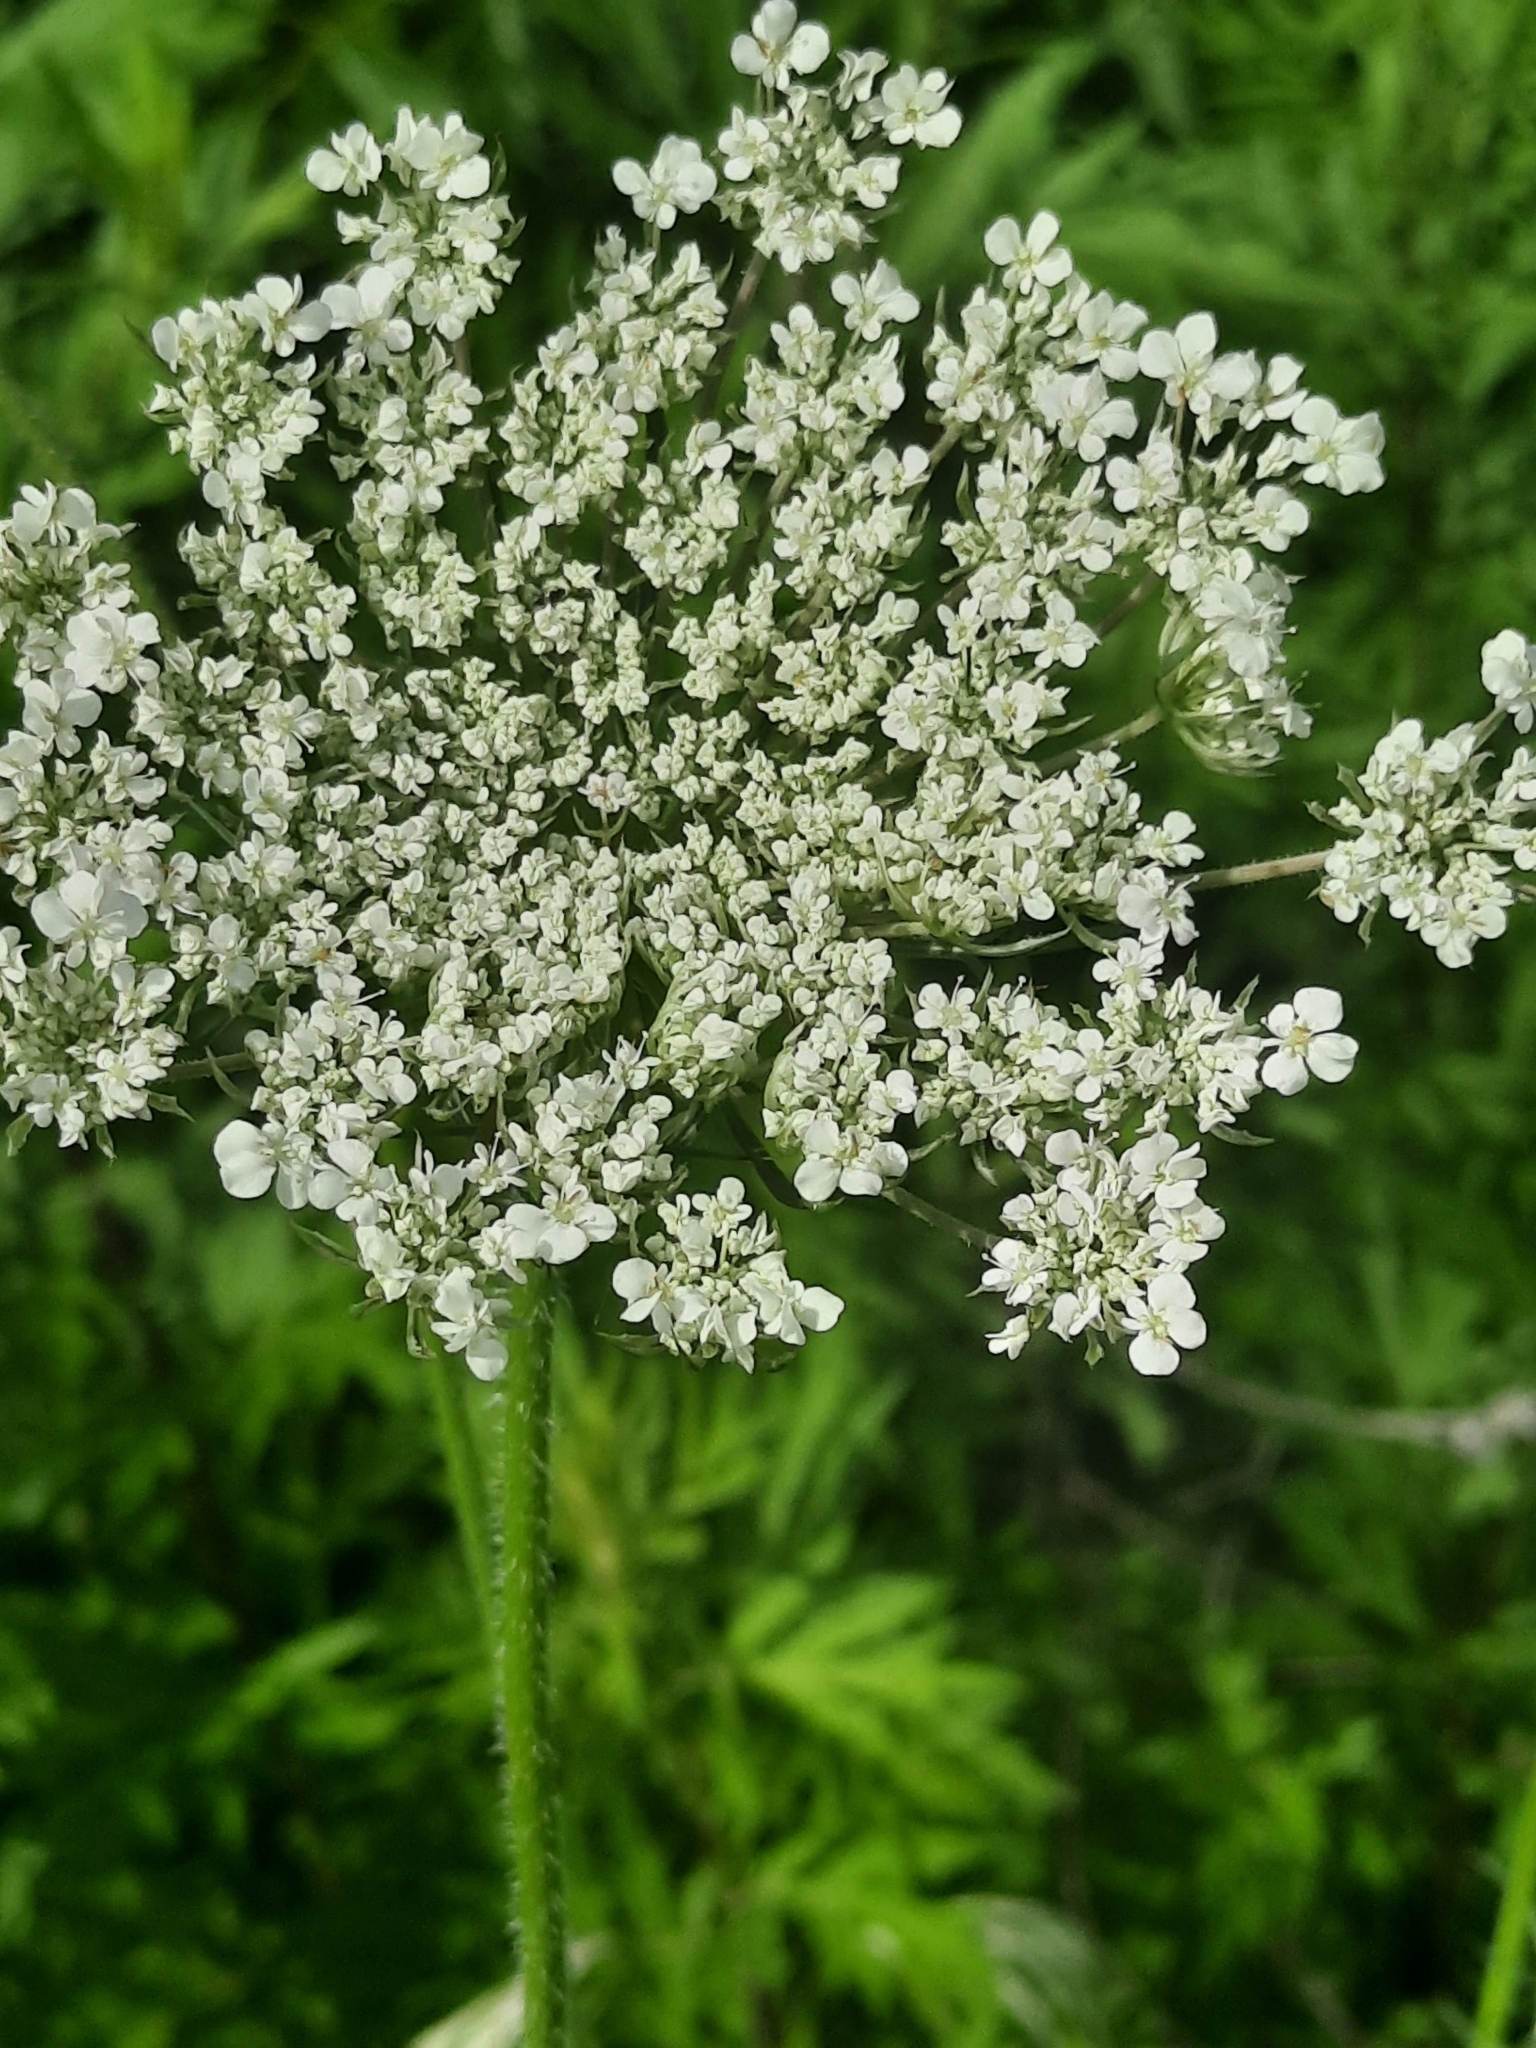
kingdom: Plantae
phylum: Tracheophyta
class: Magnoliopsida
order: Apiales
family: Apiaceae
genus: Daucus
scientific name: Daucus carota
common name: Wild carrot
